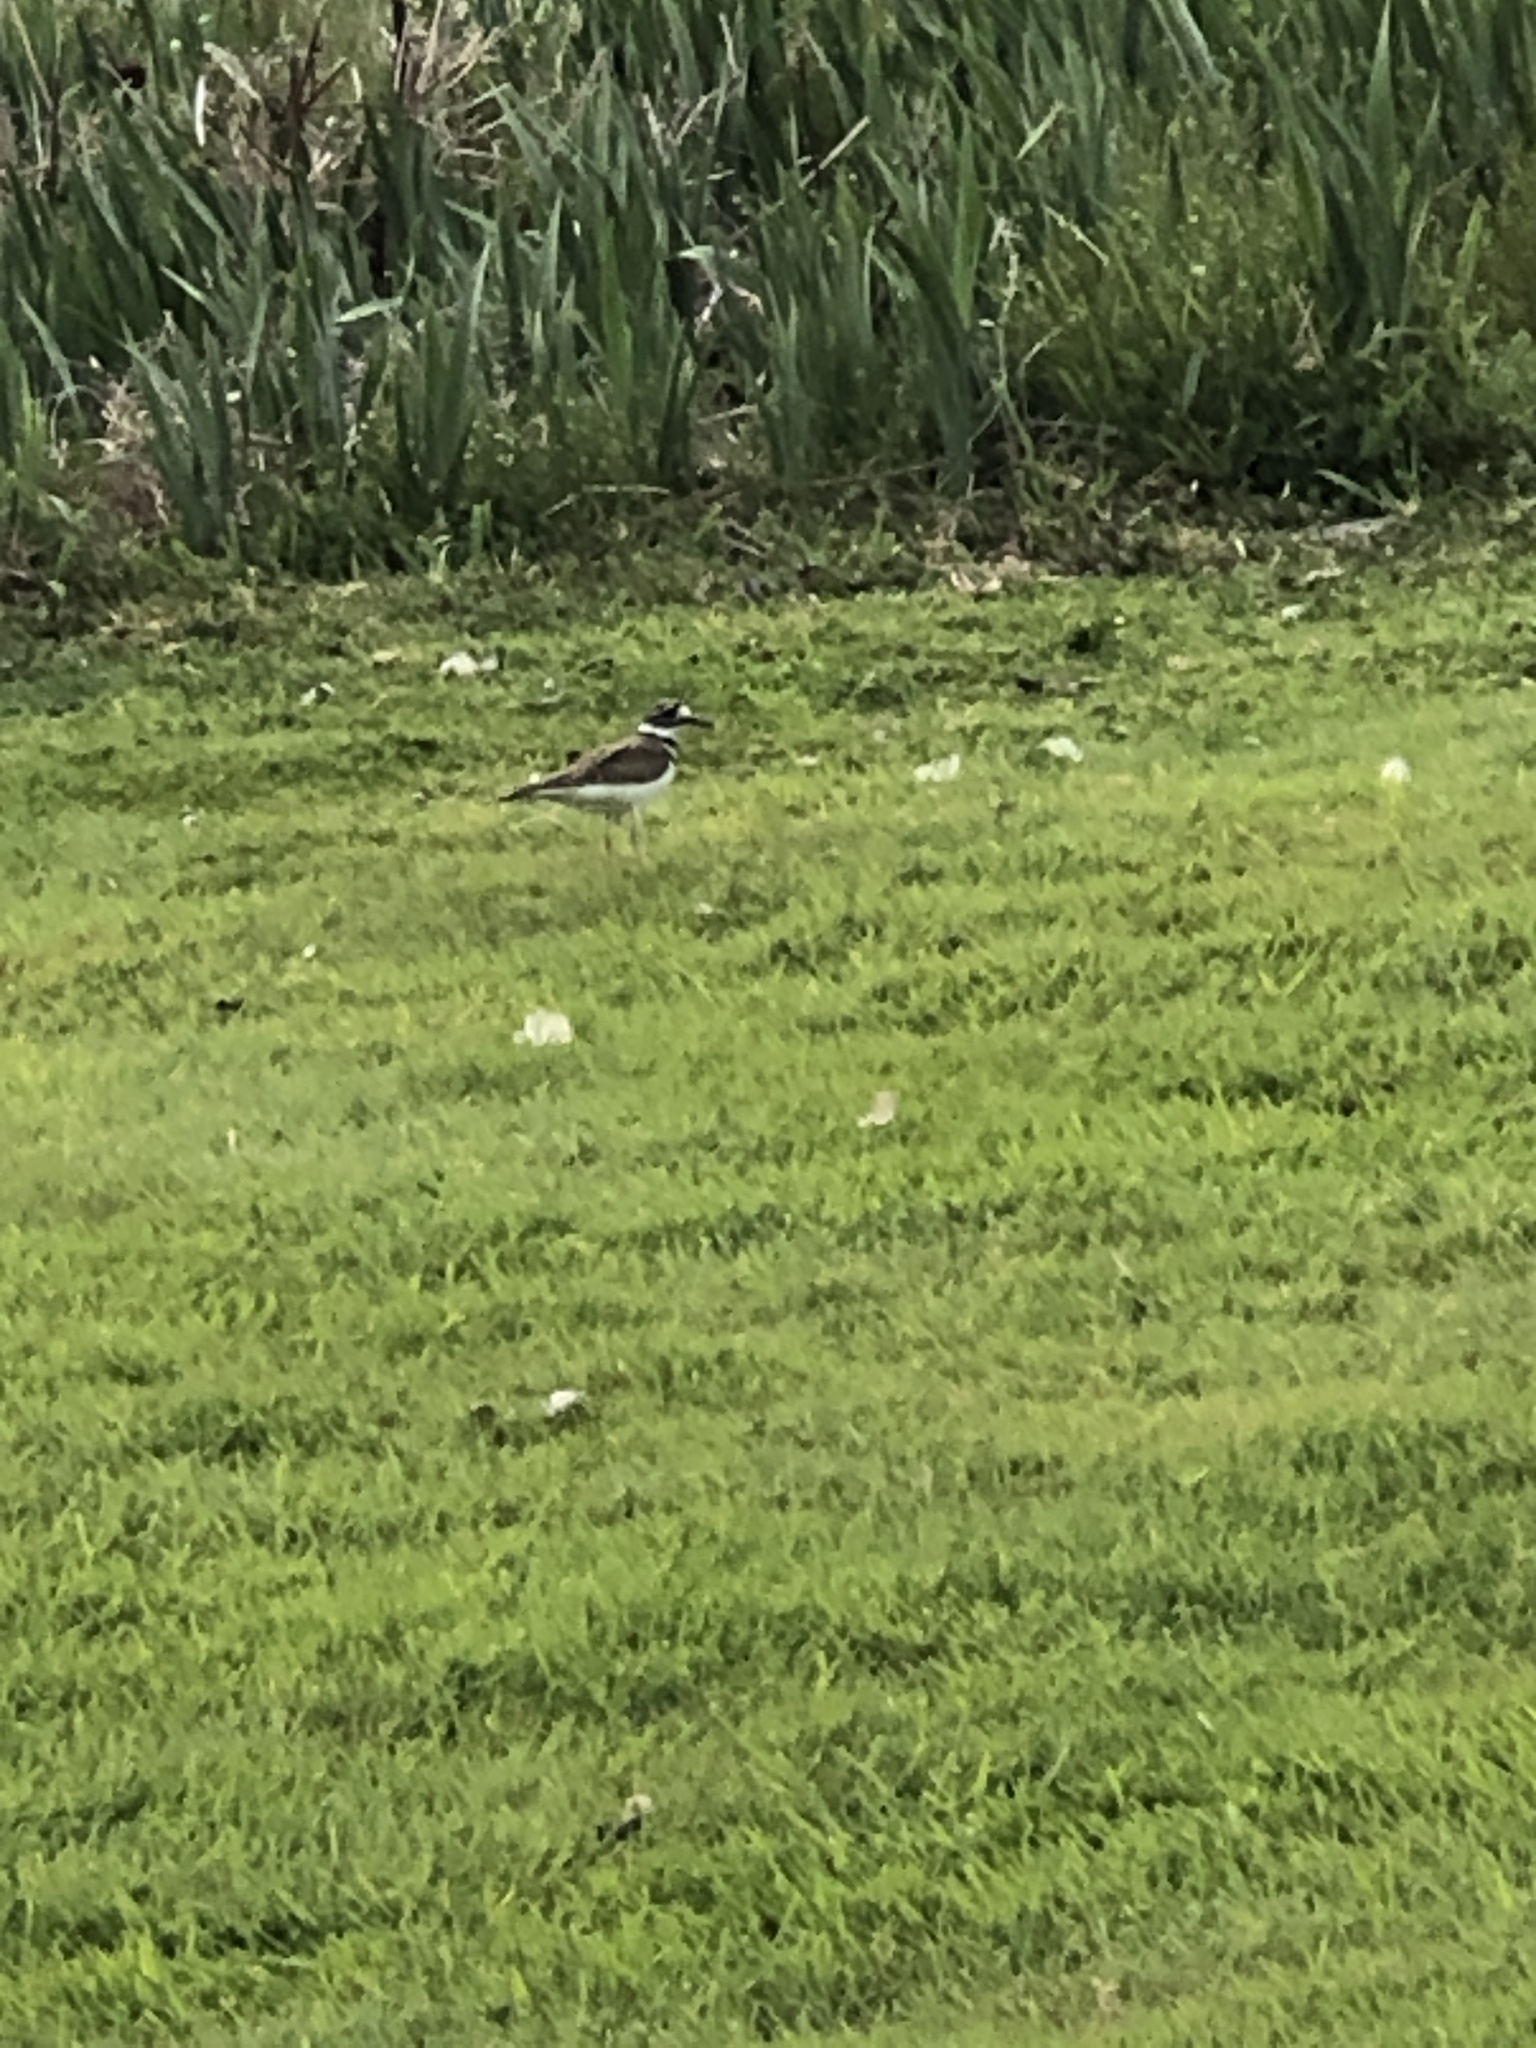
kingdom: Animalia
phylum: Chordata
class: Aves
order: Charadriiformes
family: Charadriidae
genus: Charadrius
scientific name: Charadrius vociferus
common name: Killdeer
